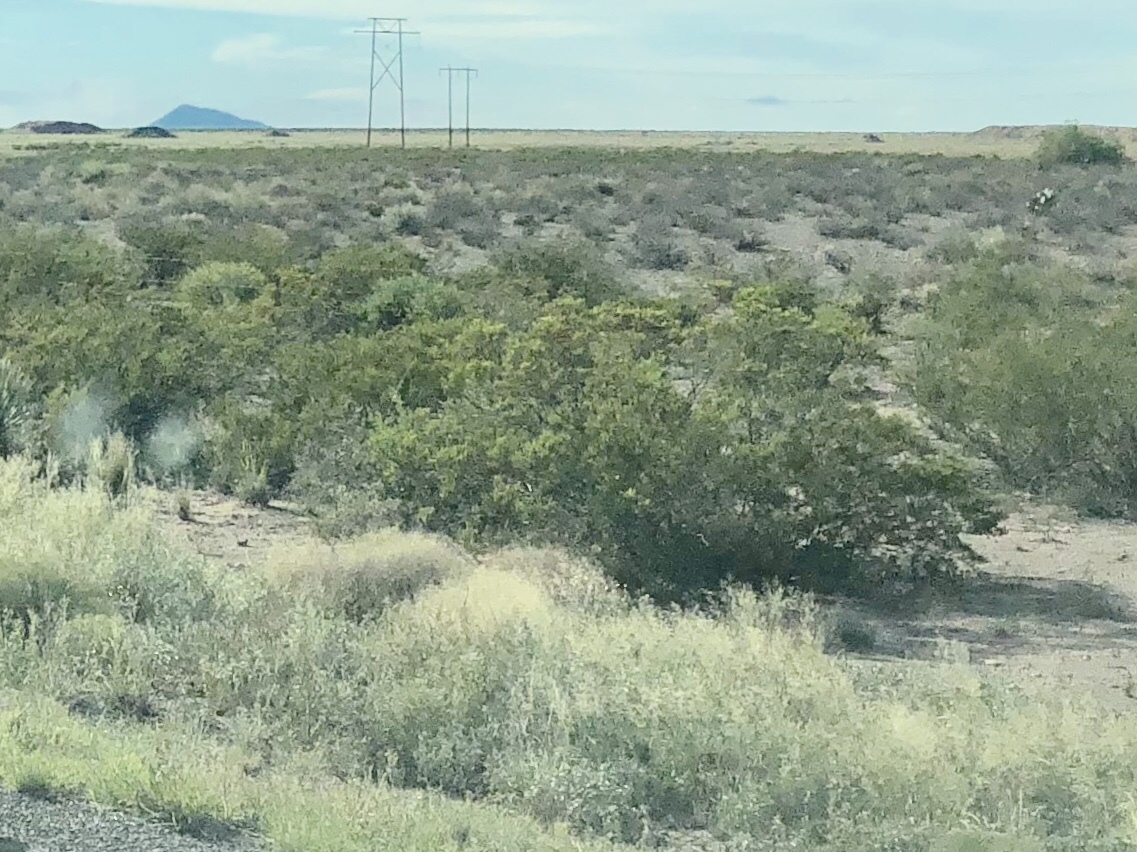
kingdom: Plantae
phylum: Tracheophyta
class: Magnoliopsida
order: Zygophyllales
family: Zygophyllaceae
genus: Larrea
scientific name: Larrea tridentata
